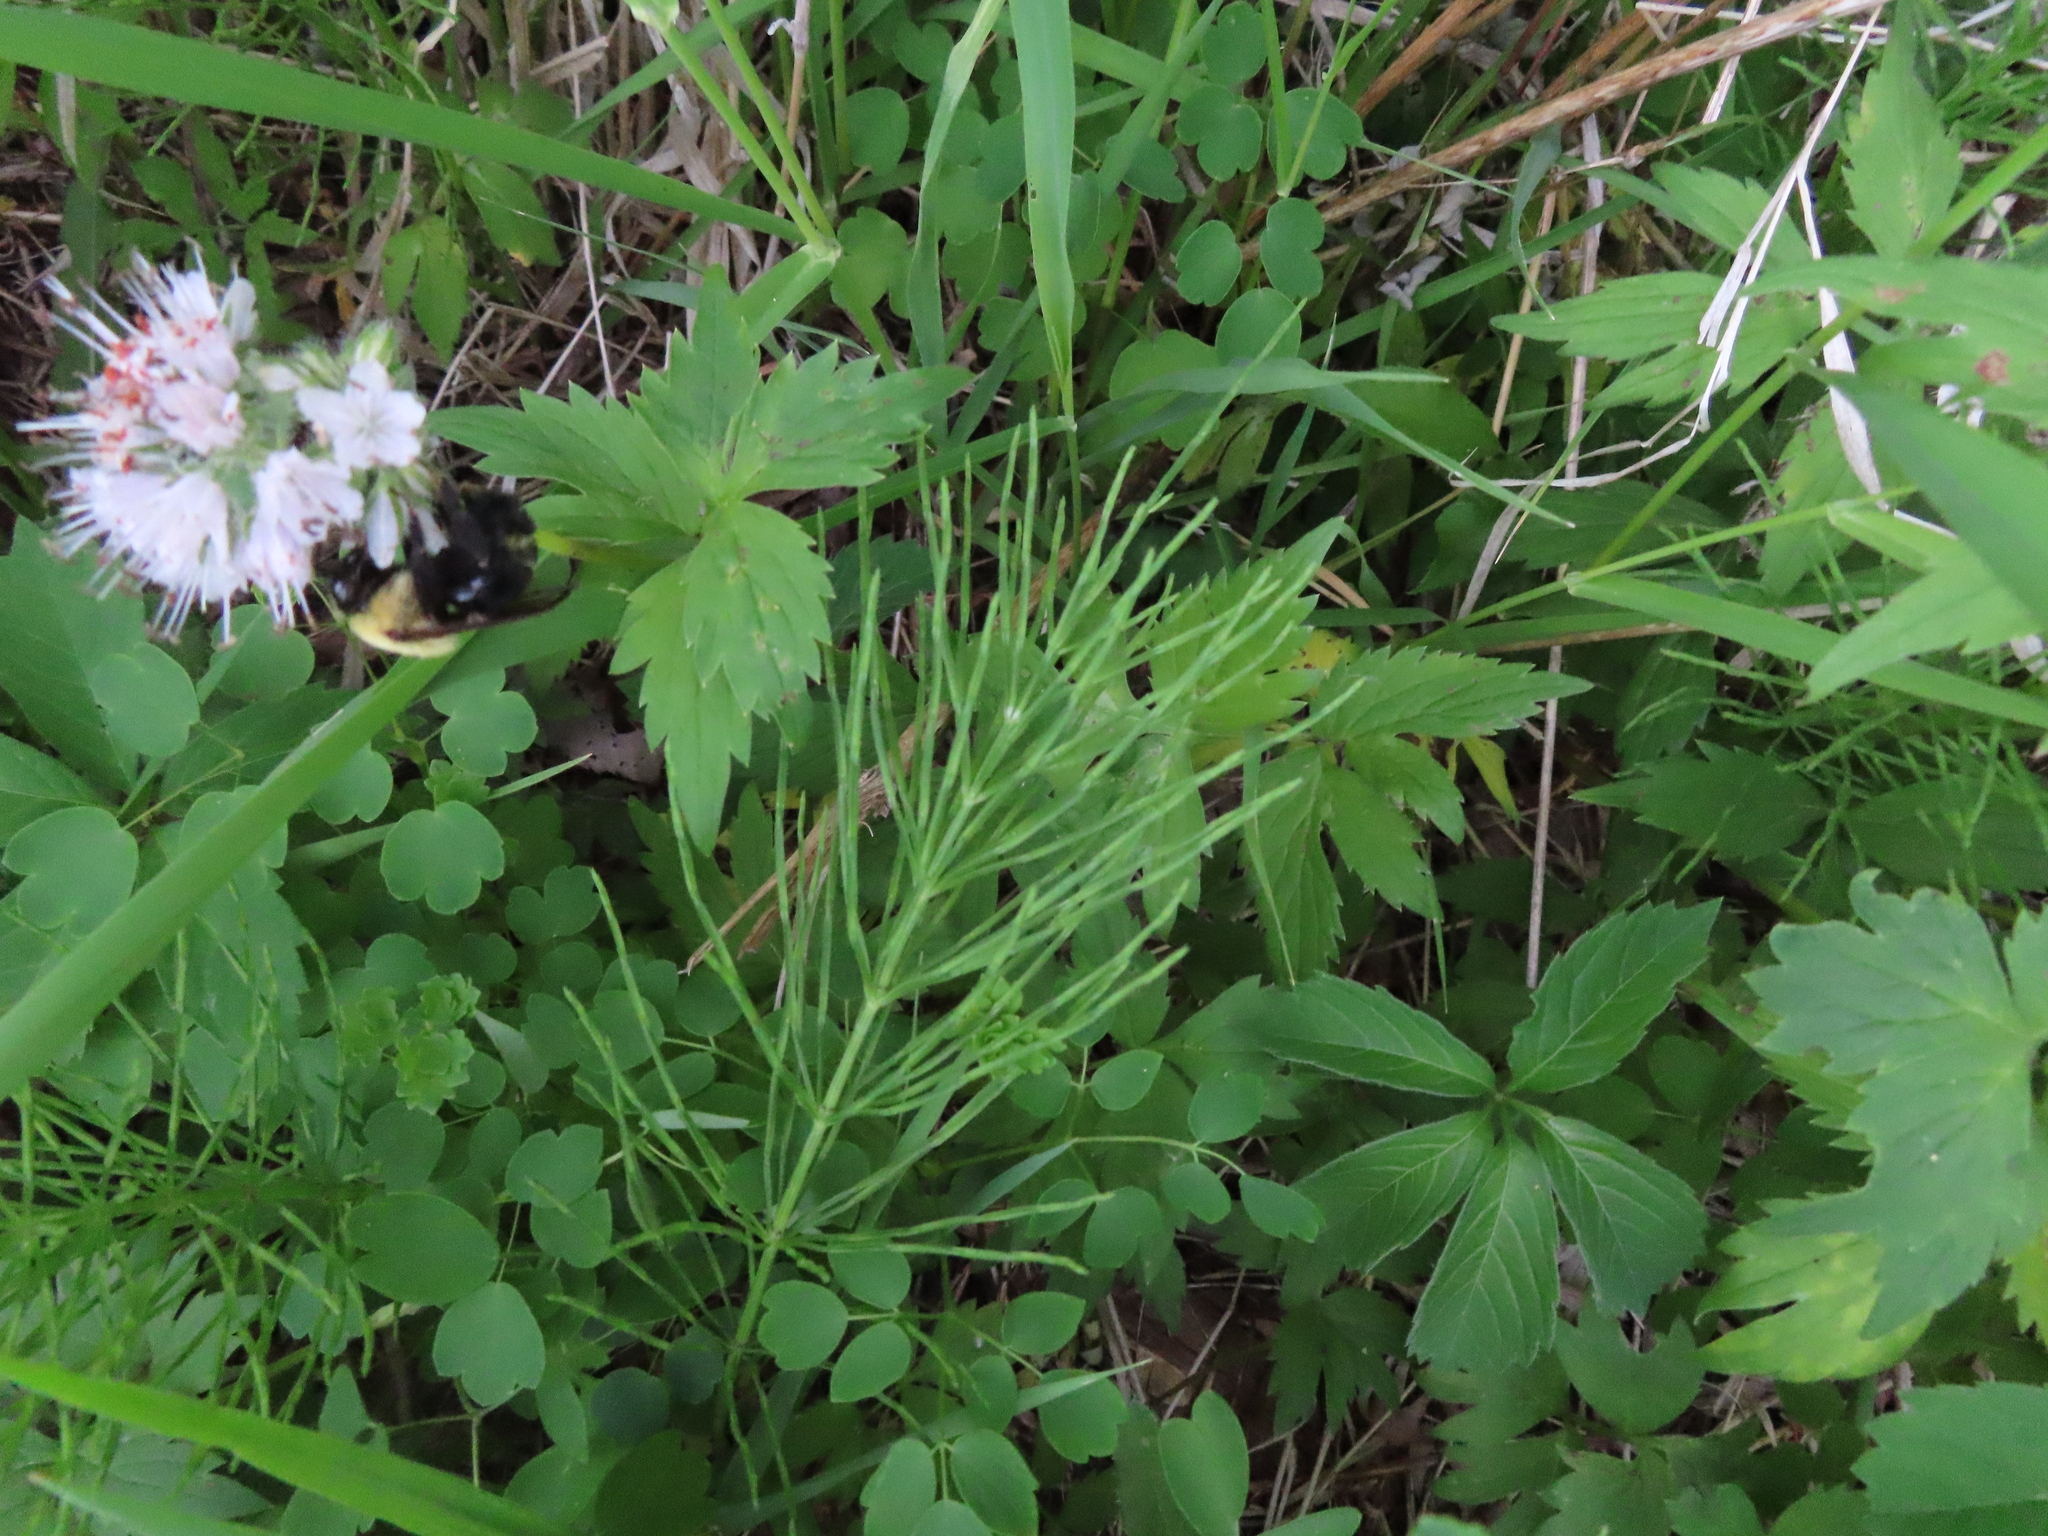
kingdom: Plantae
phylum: Tracheophyta
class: Polypodiopsida
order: Equisetales
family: Equisetaceae
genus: Equisetum
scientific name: Equisetum arvense
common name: Field horsetail
